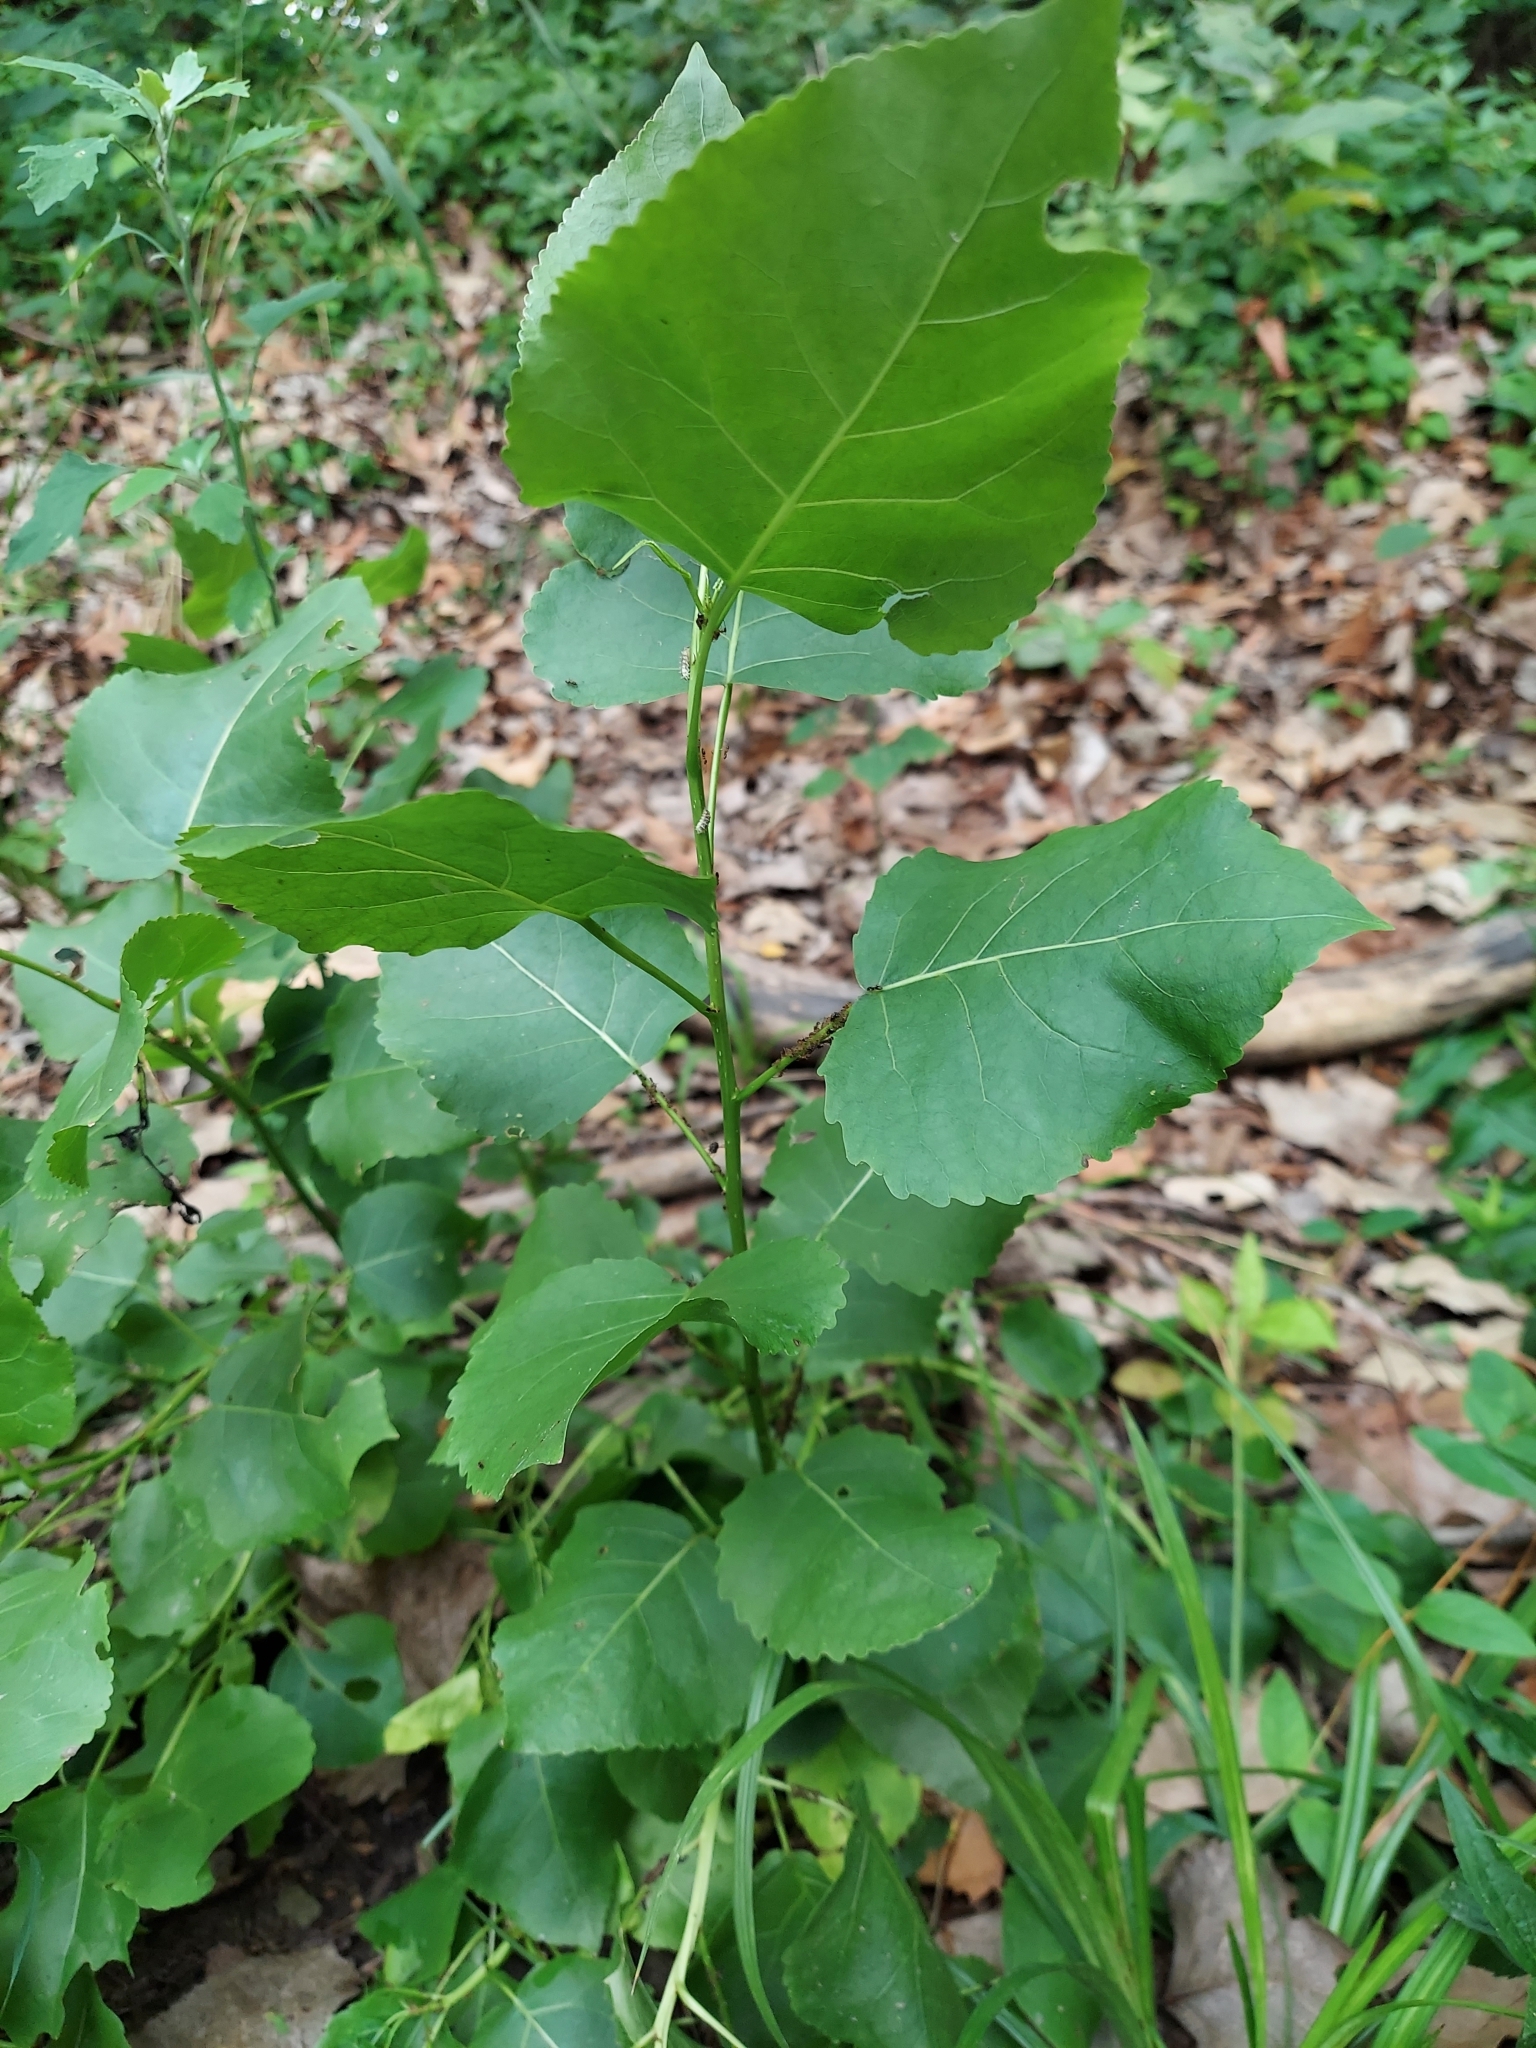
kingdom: Plantae
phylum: Tracheophyta
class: Magnoliopsida
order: Malpighiales
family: Salicaceae
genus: Populus
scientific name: Populus deltoides
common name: Eastern cottonwood
